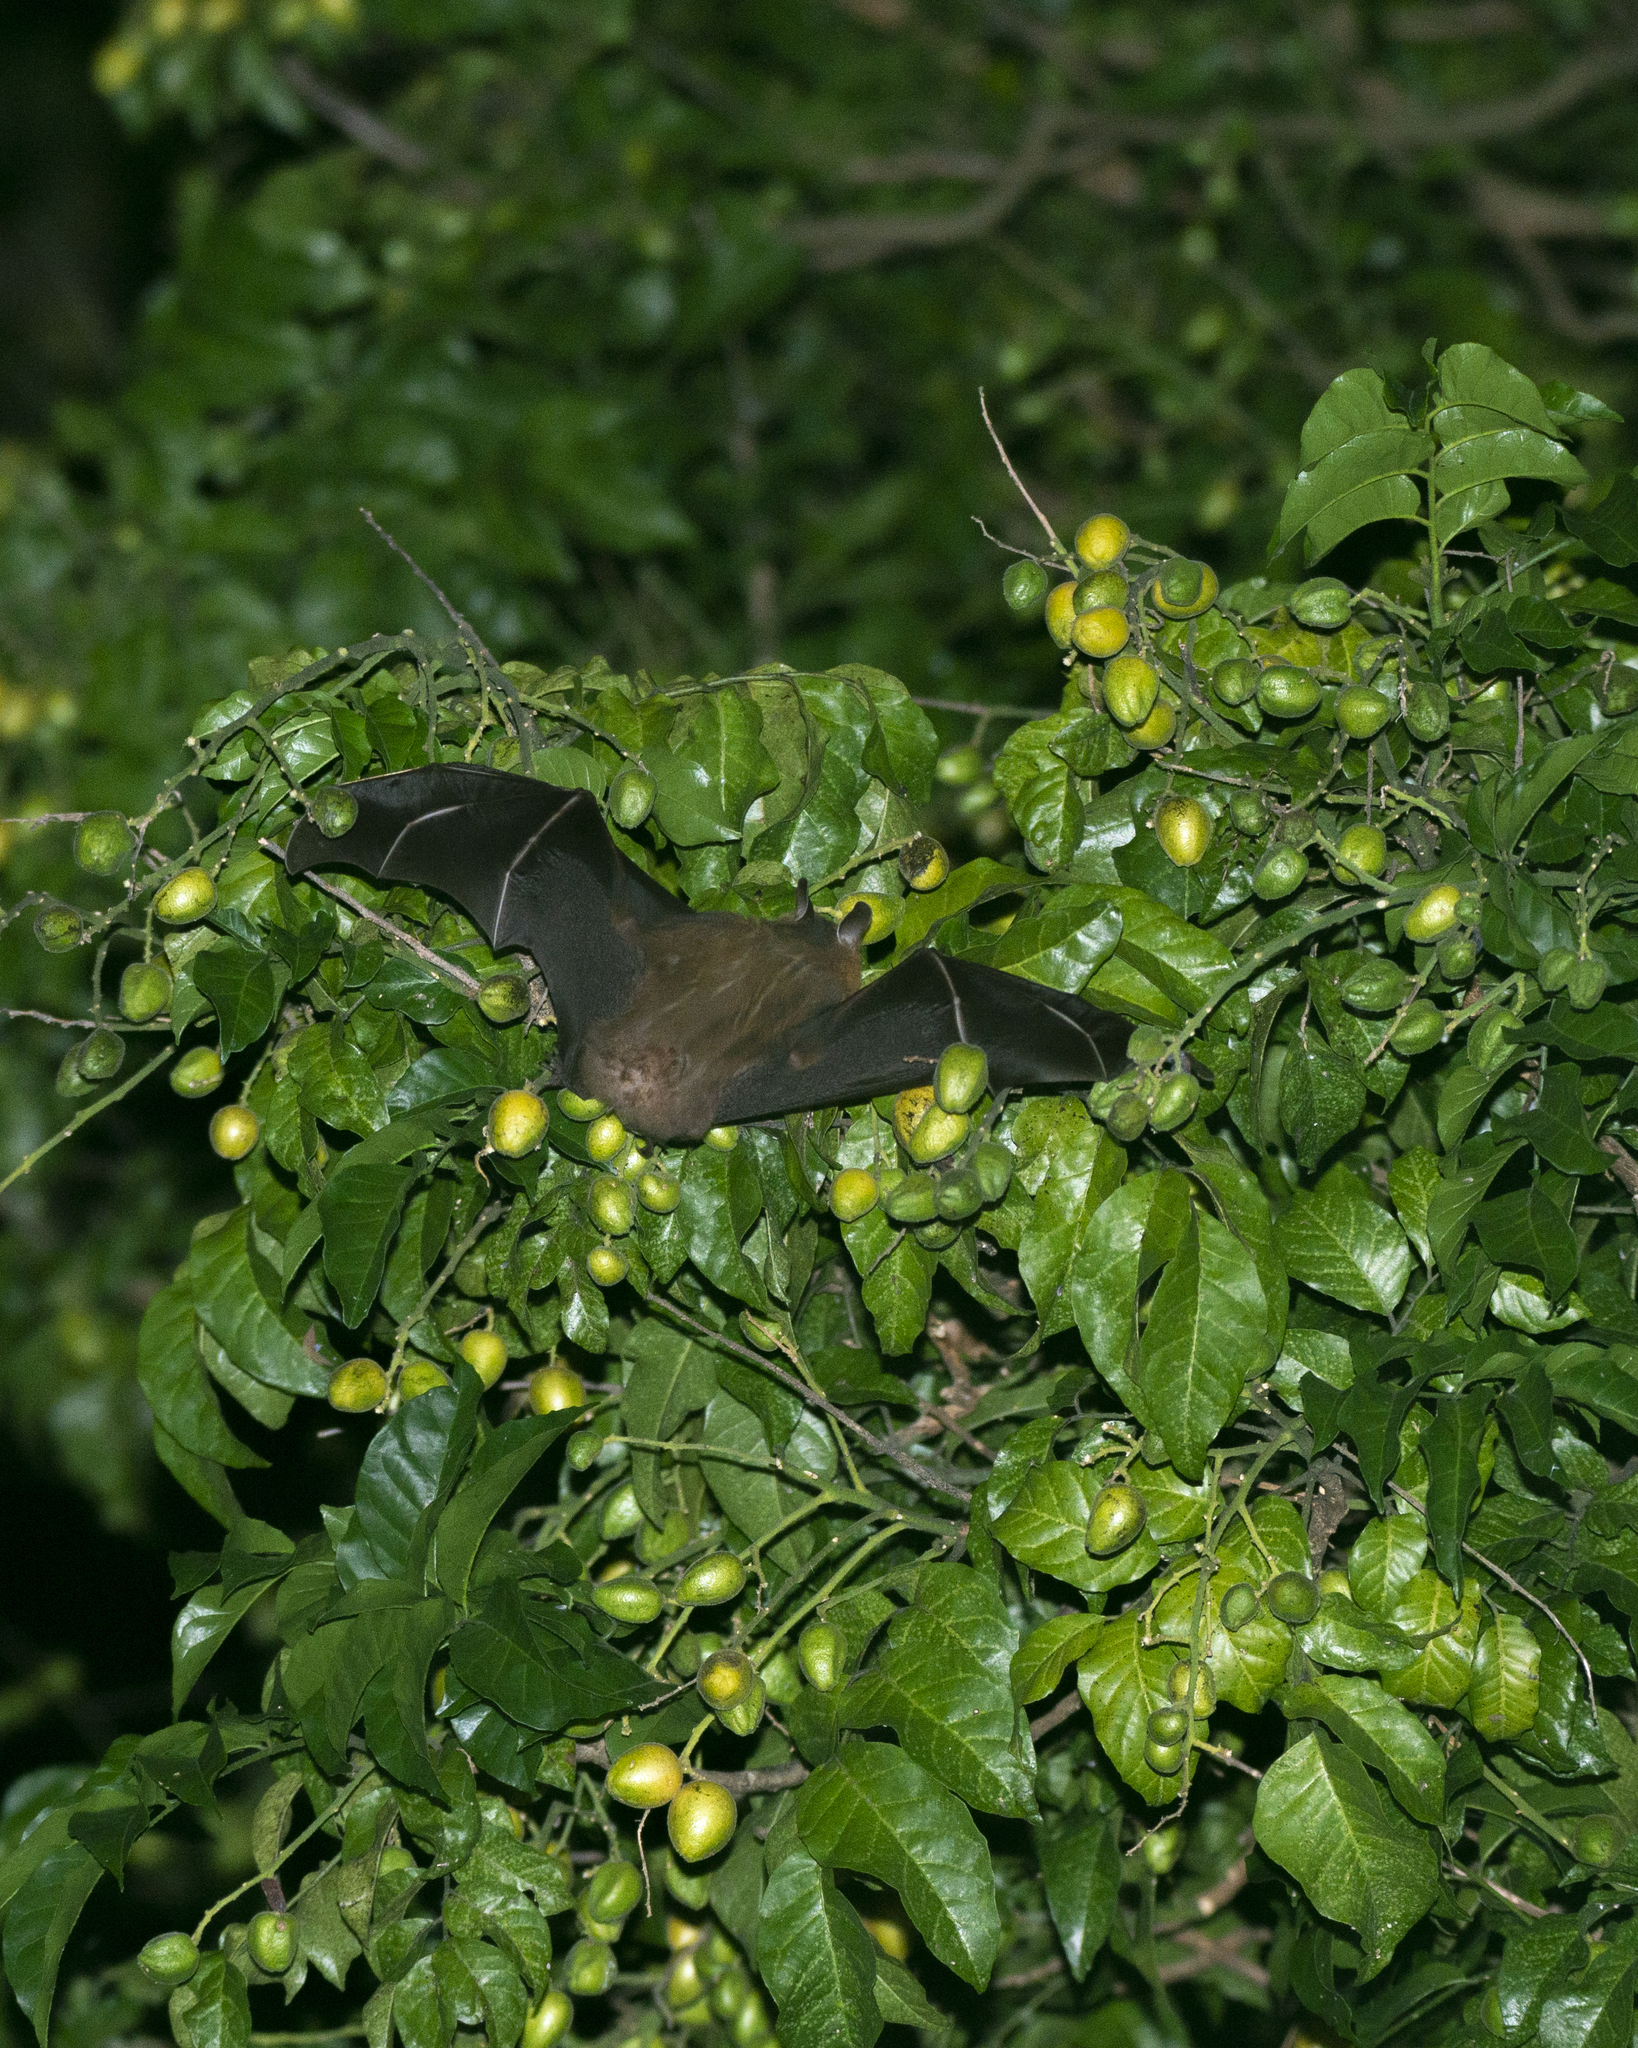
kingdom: Animalia
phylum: Chordata
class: Mammalia
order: Chiroptera
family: Pteropodidae
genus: Cynopterus
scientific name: Cynopterus sphinx
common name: Greater short-nosed fruit bat
